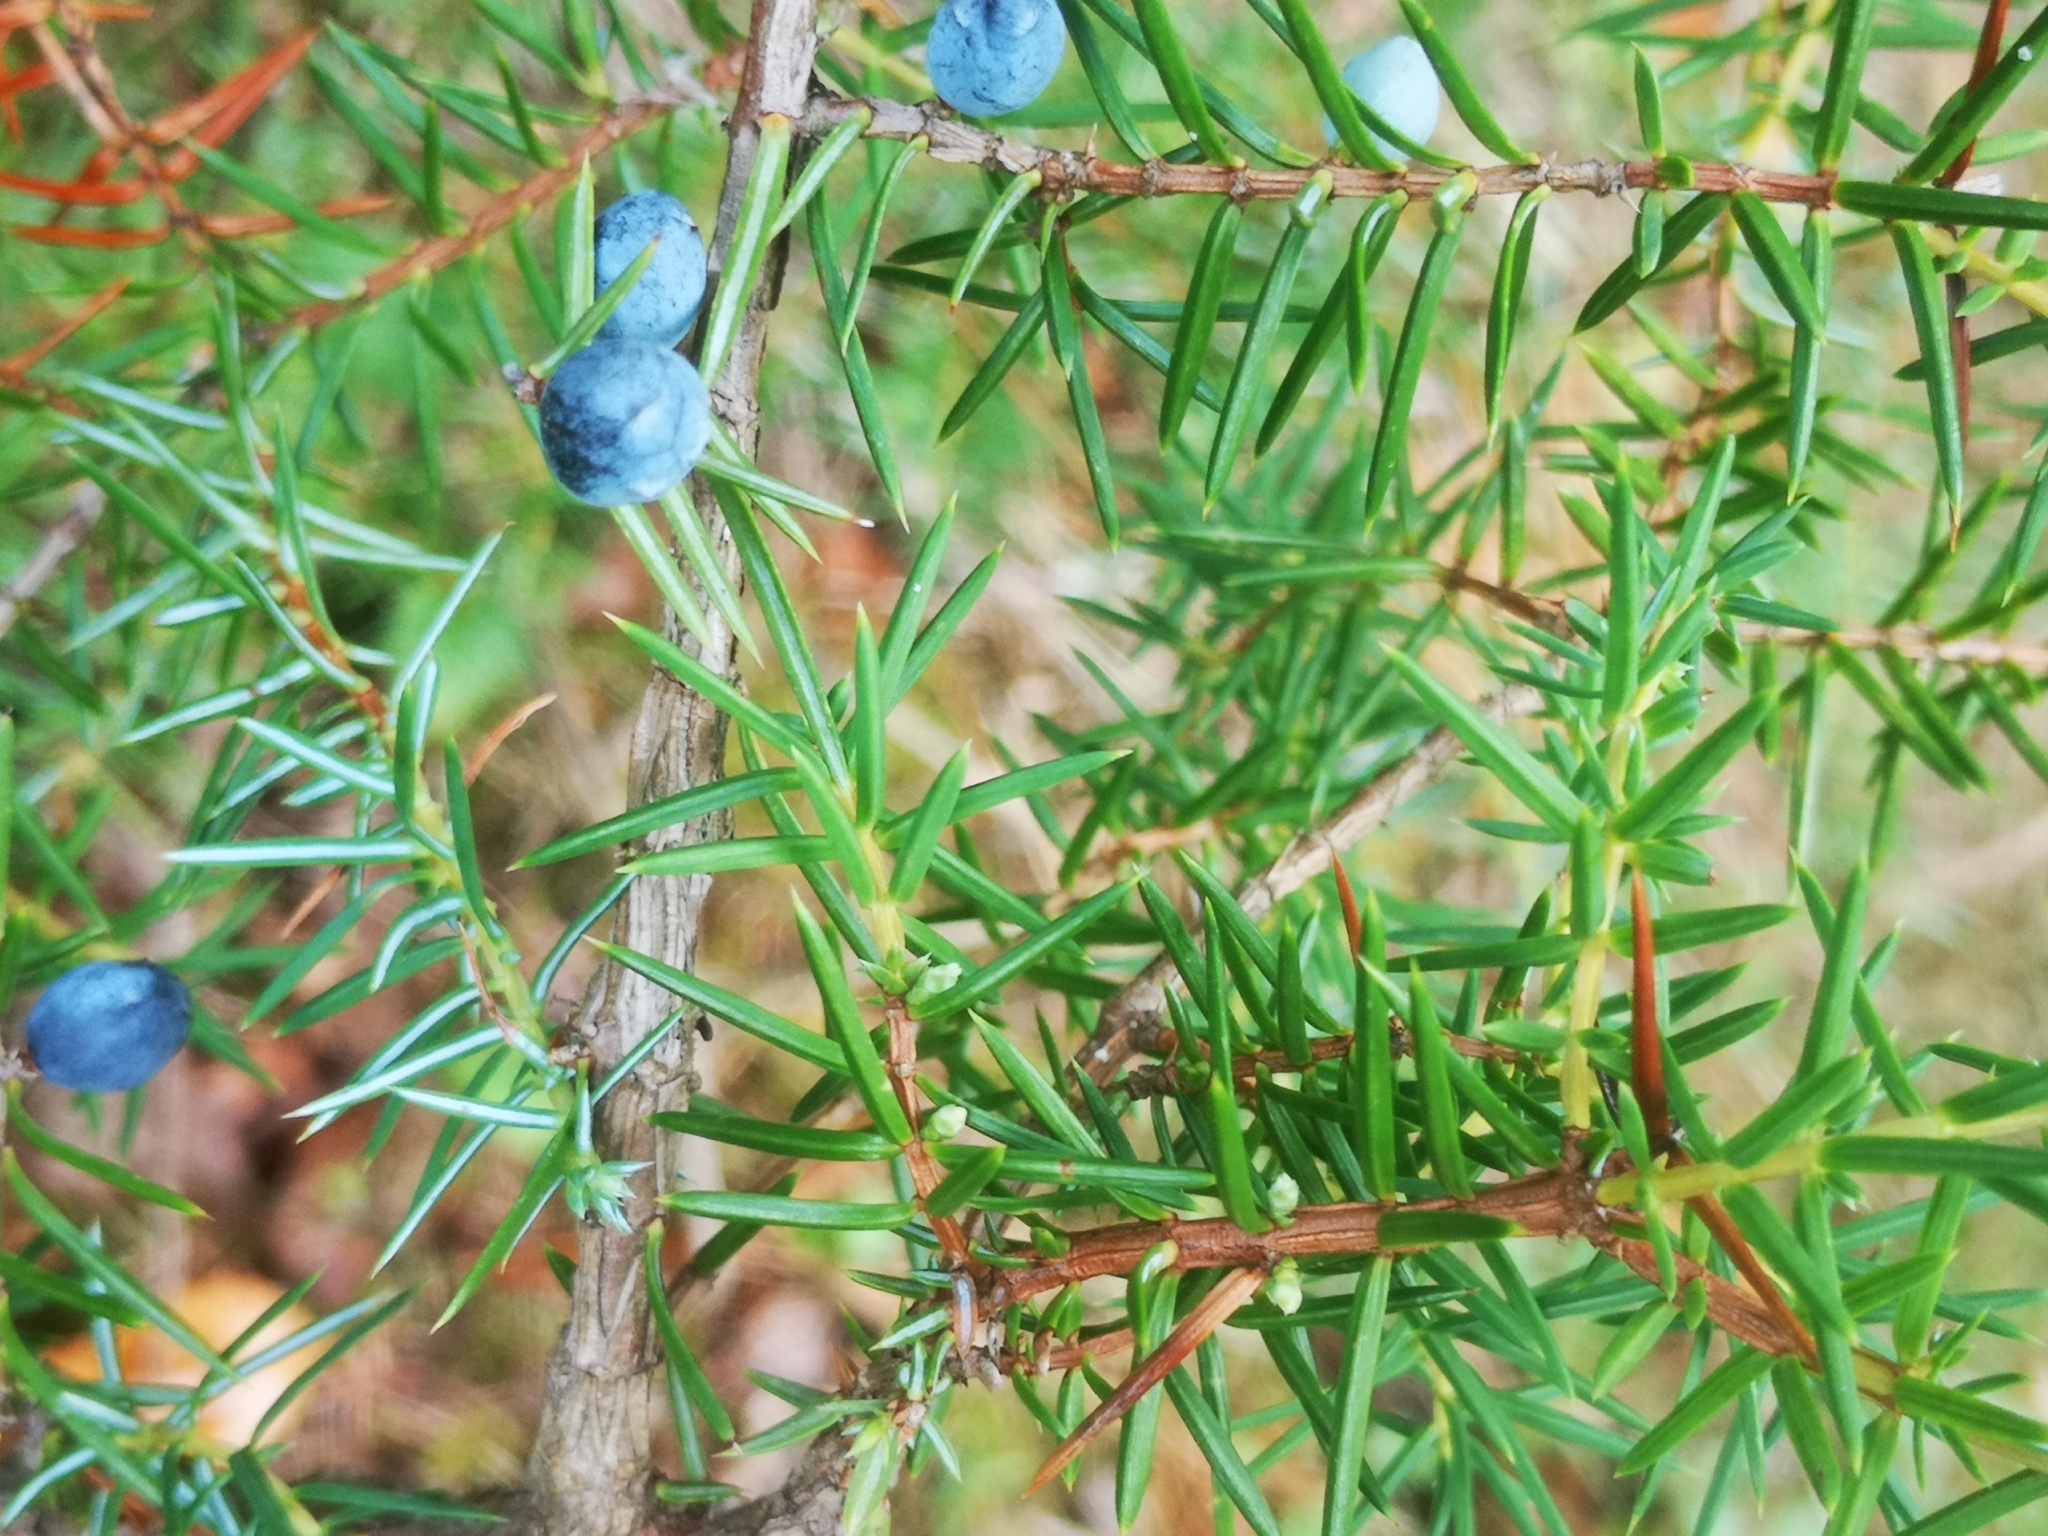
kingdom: Plantae
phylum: Tracheophyta
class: Pinopsida
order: Pinales
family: Cupressaceae
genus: Juniperus
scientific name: Juniperus communis
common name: Common juniper
